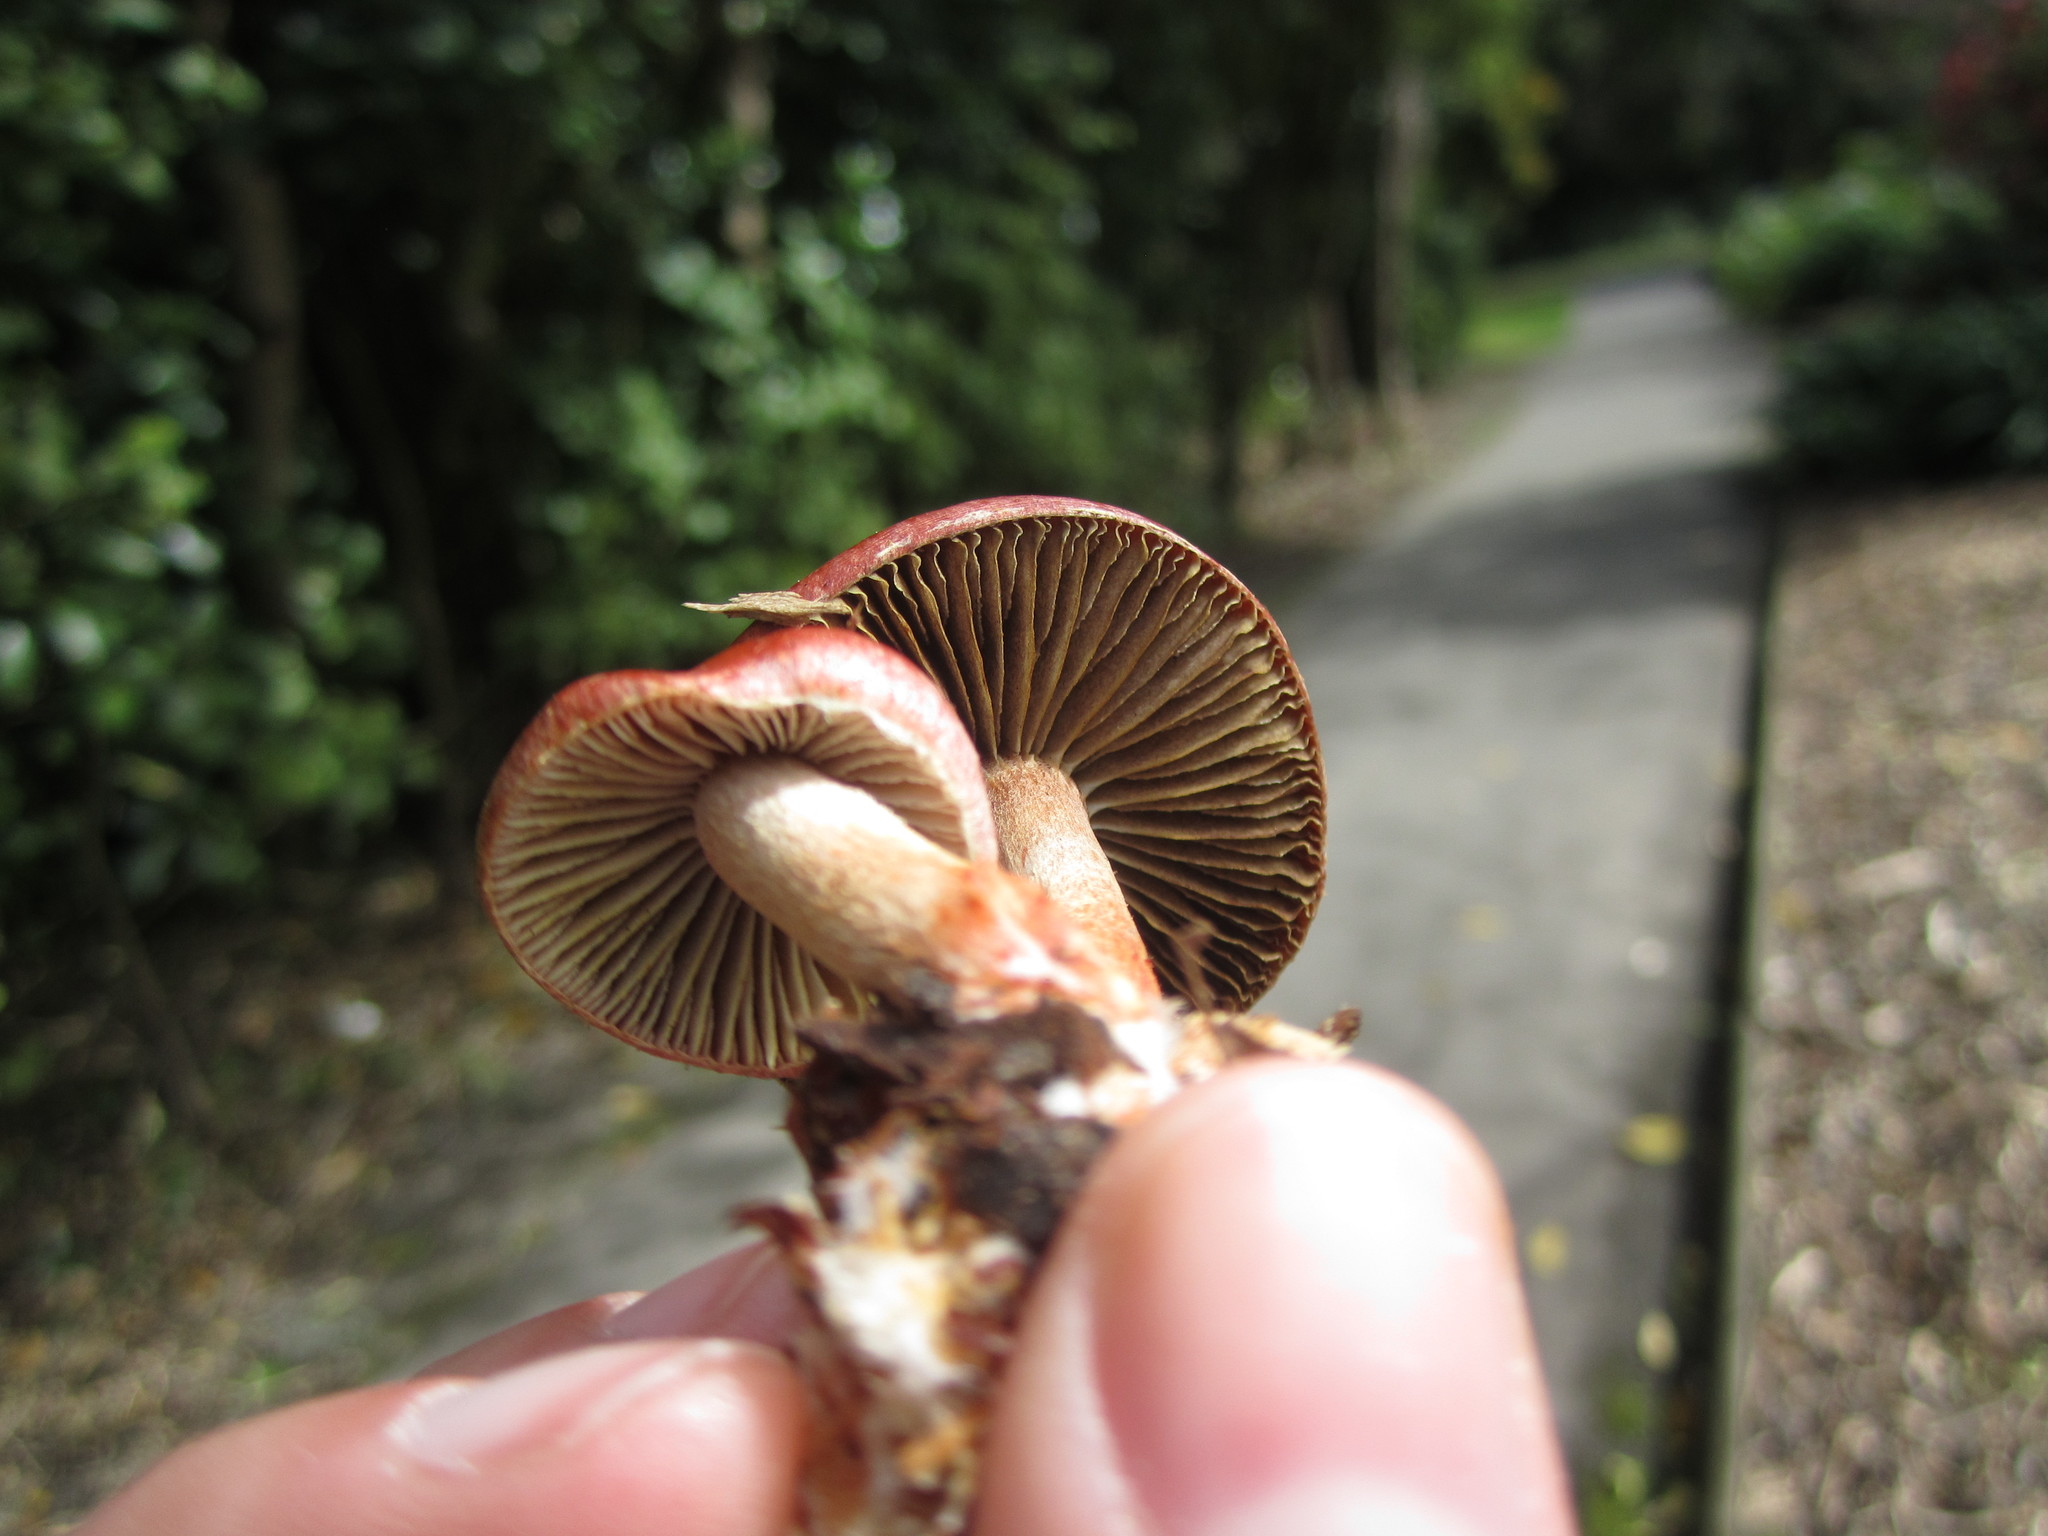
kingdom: Fungi
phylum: Basidiomycota
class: Agaricomycetes
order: Agaricales
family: Strophariaceae
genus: Leratiomyces
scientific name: Leratiomyces ceres
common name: Redlead roundhead
